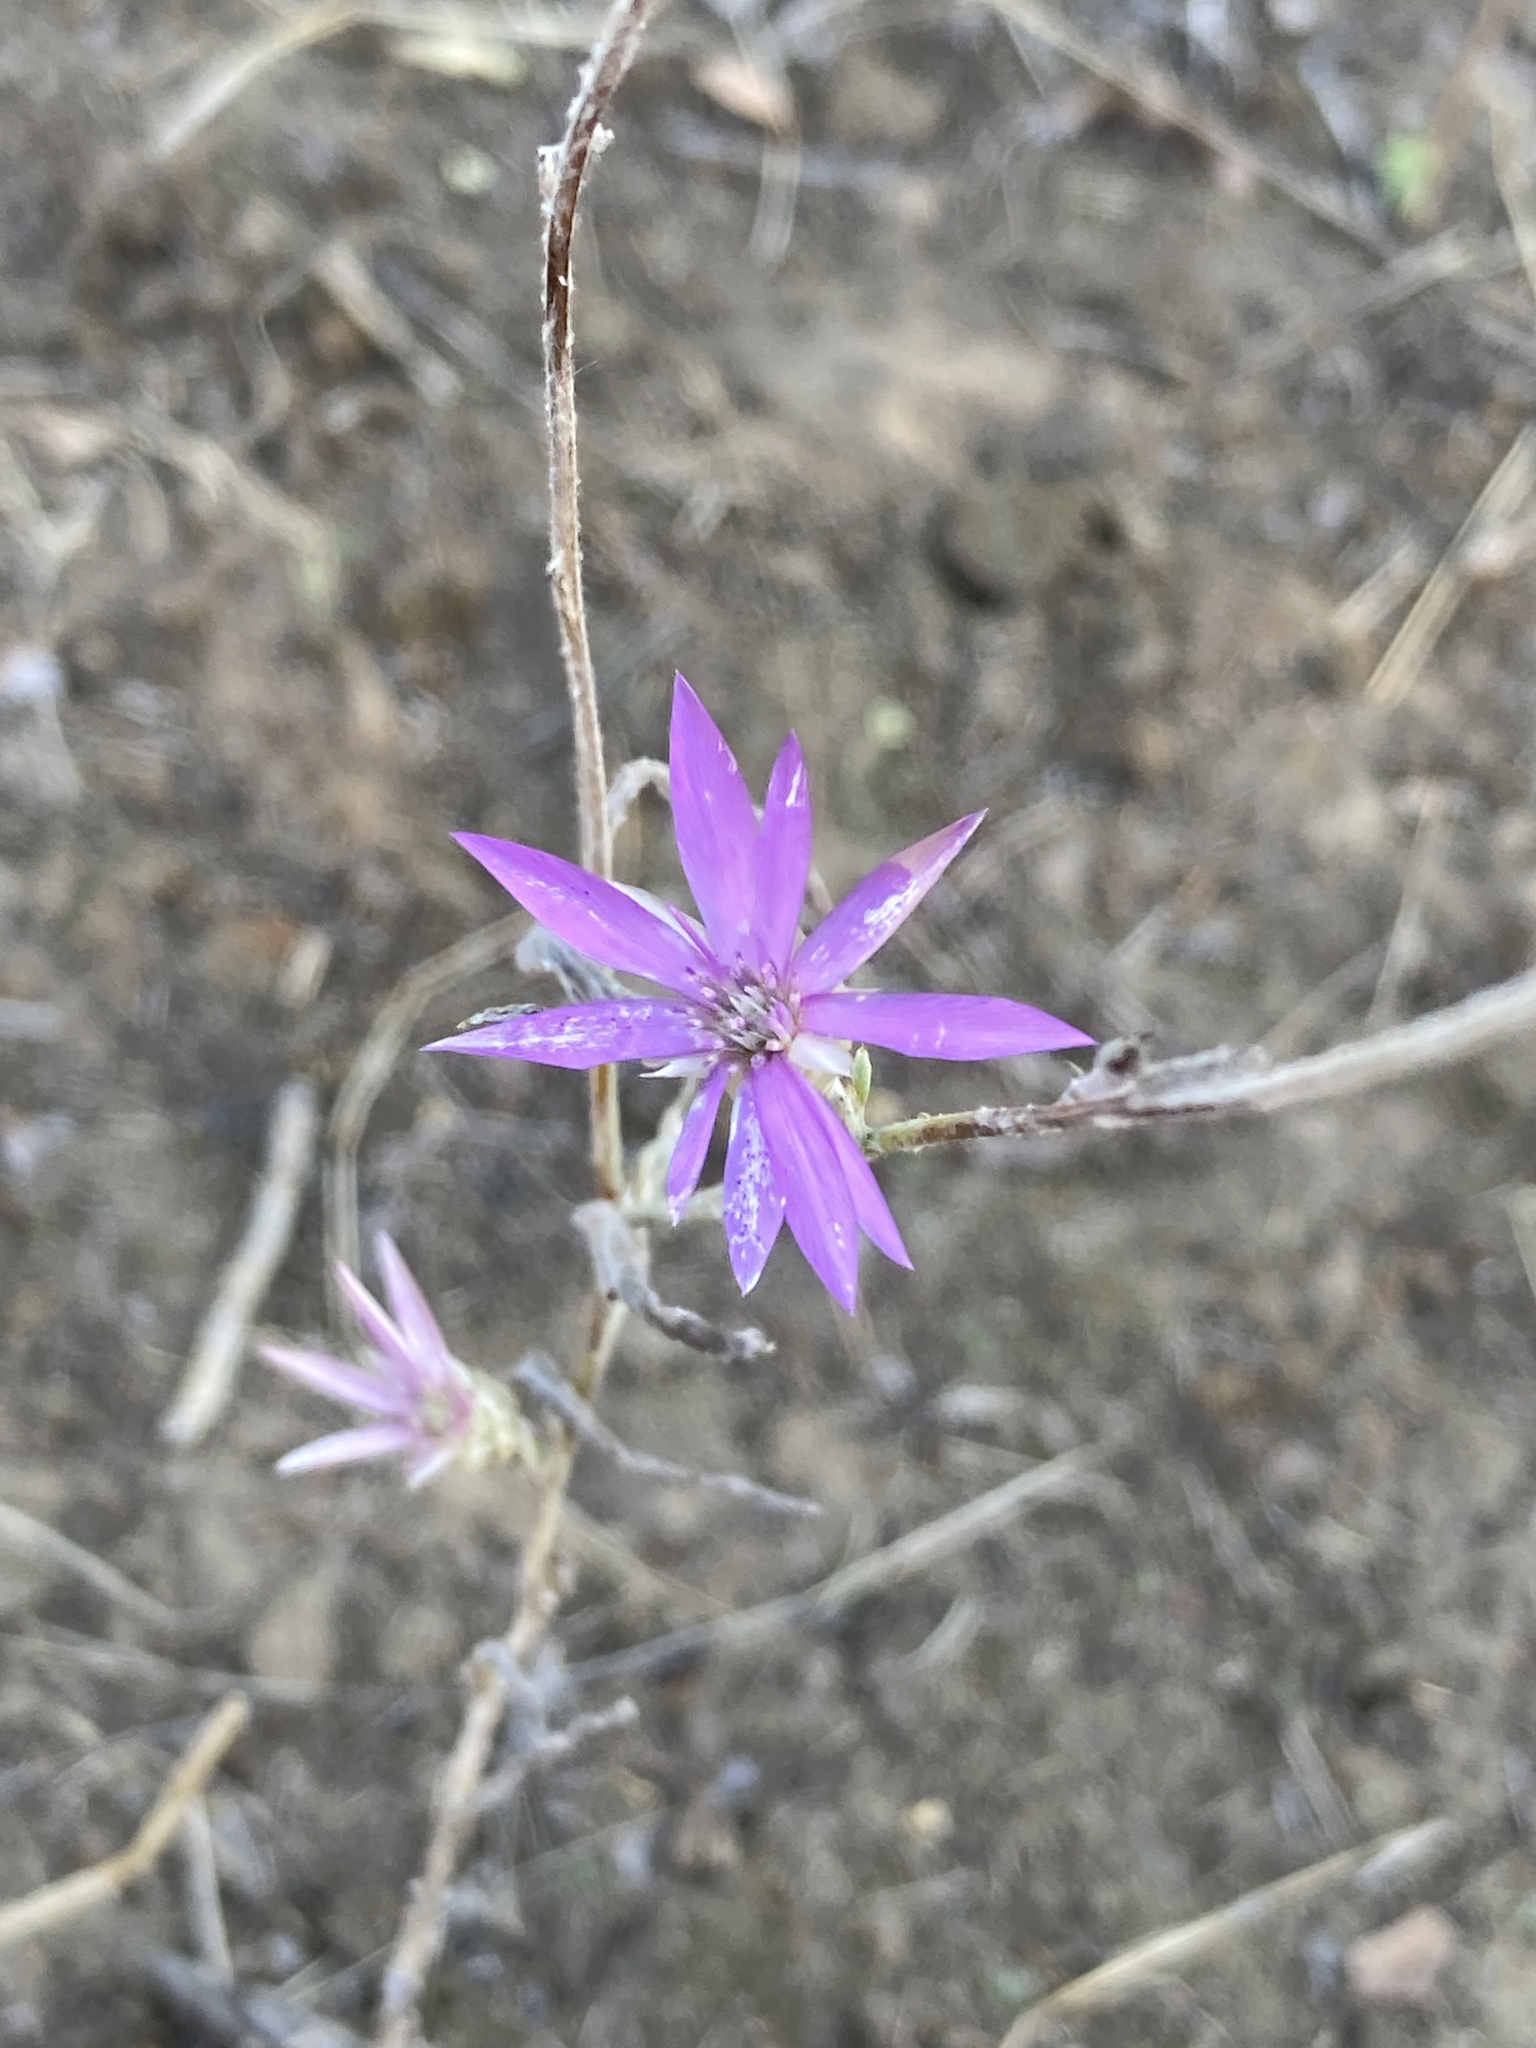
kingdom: Plantae
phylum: Tracheophyta
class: Magnoliopsida
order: Asterales
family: Asteraceae
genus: Xeranthemum
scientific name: Xeranthemum annuum
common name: Immortelle
